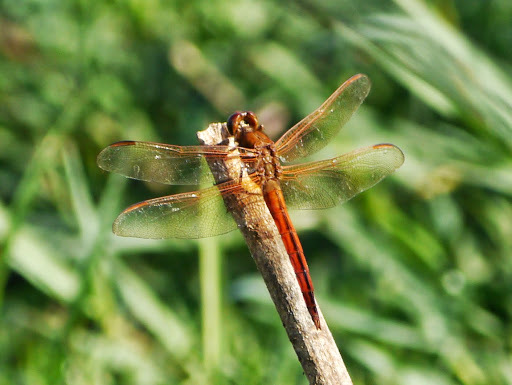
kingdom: Animalia
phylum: Arthropoda
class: Insecta
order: Odonata
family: Libellulidae
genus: Libellula
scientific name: Libellula needhami
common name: Needham's skimmer
